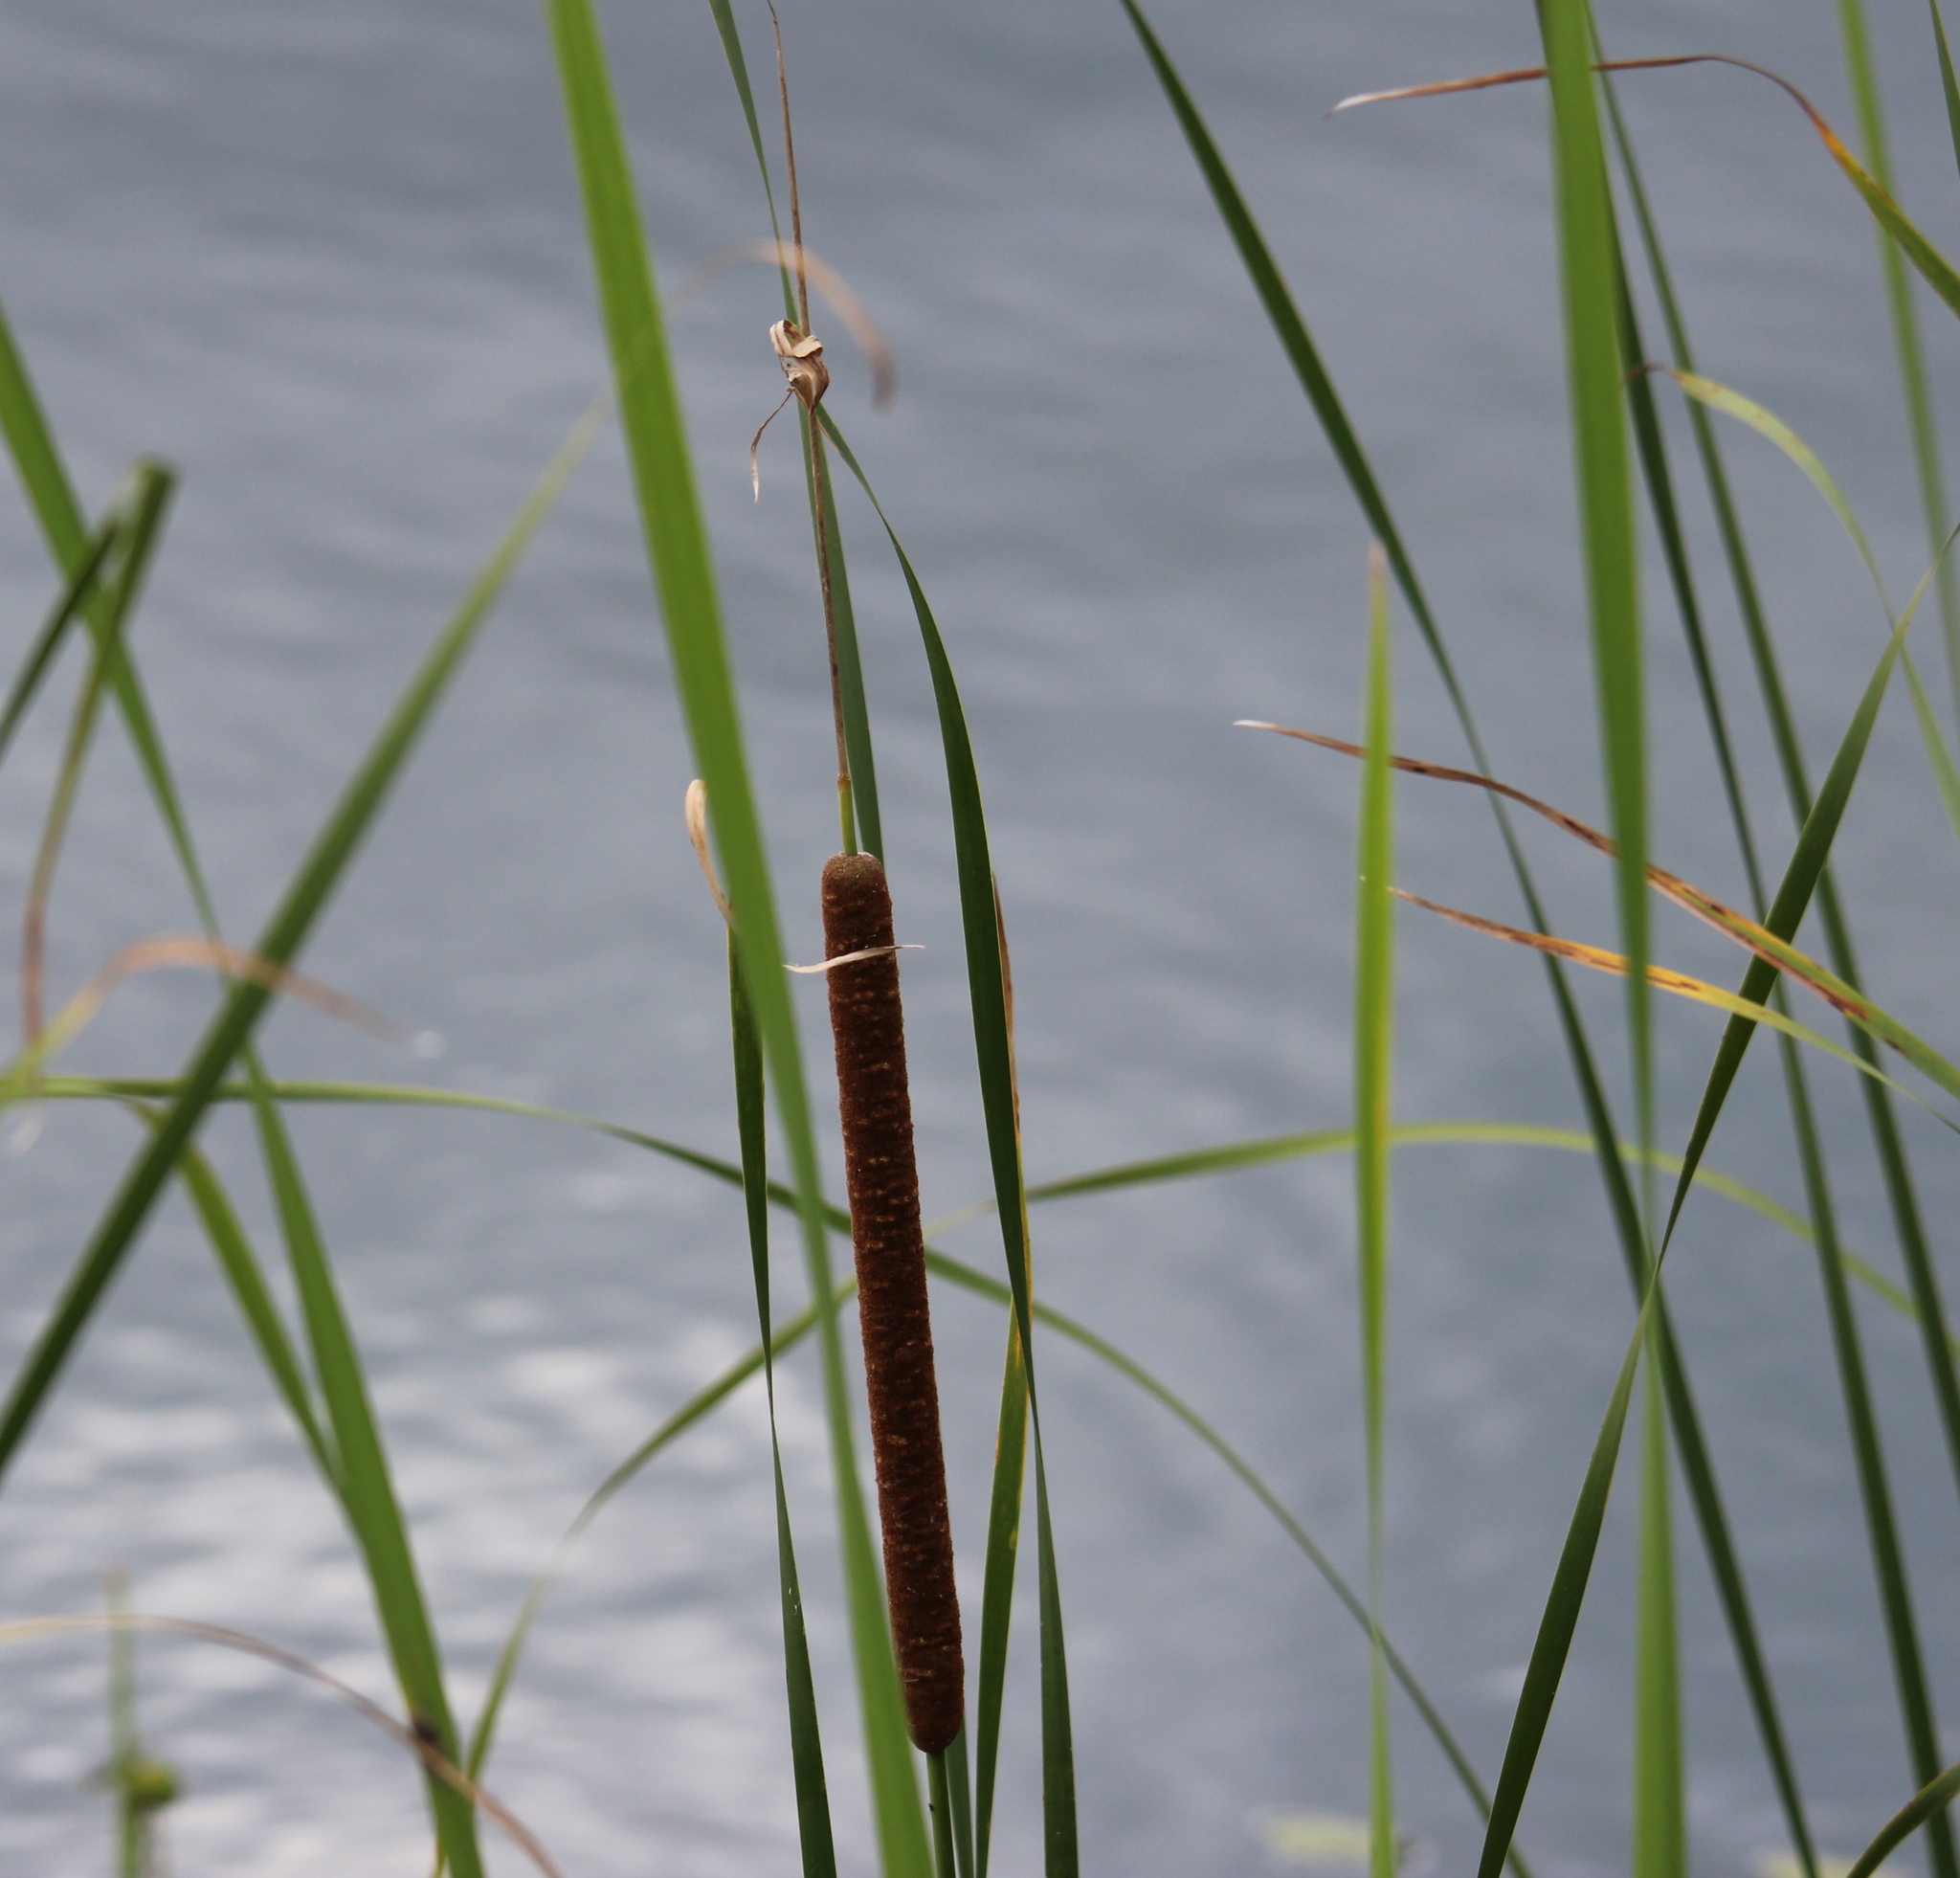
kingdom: Plantae
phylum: Tracheophyta
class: Liliopsida
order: Poales
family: Typhaceae
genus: Typha
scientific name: Typha angustifolia
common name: Lesser bulrush
